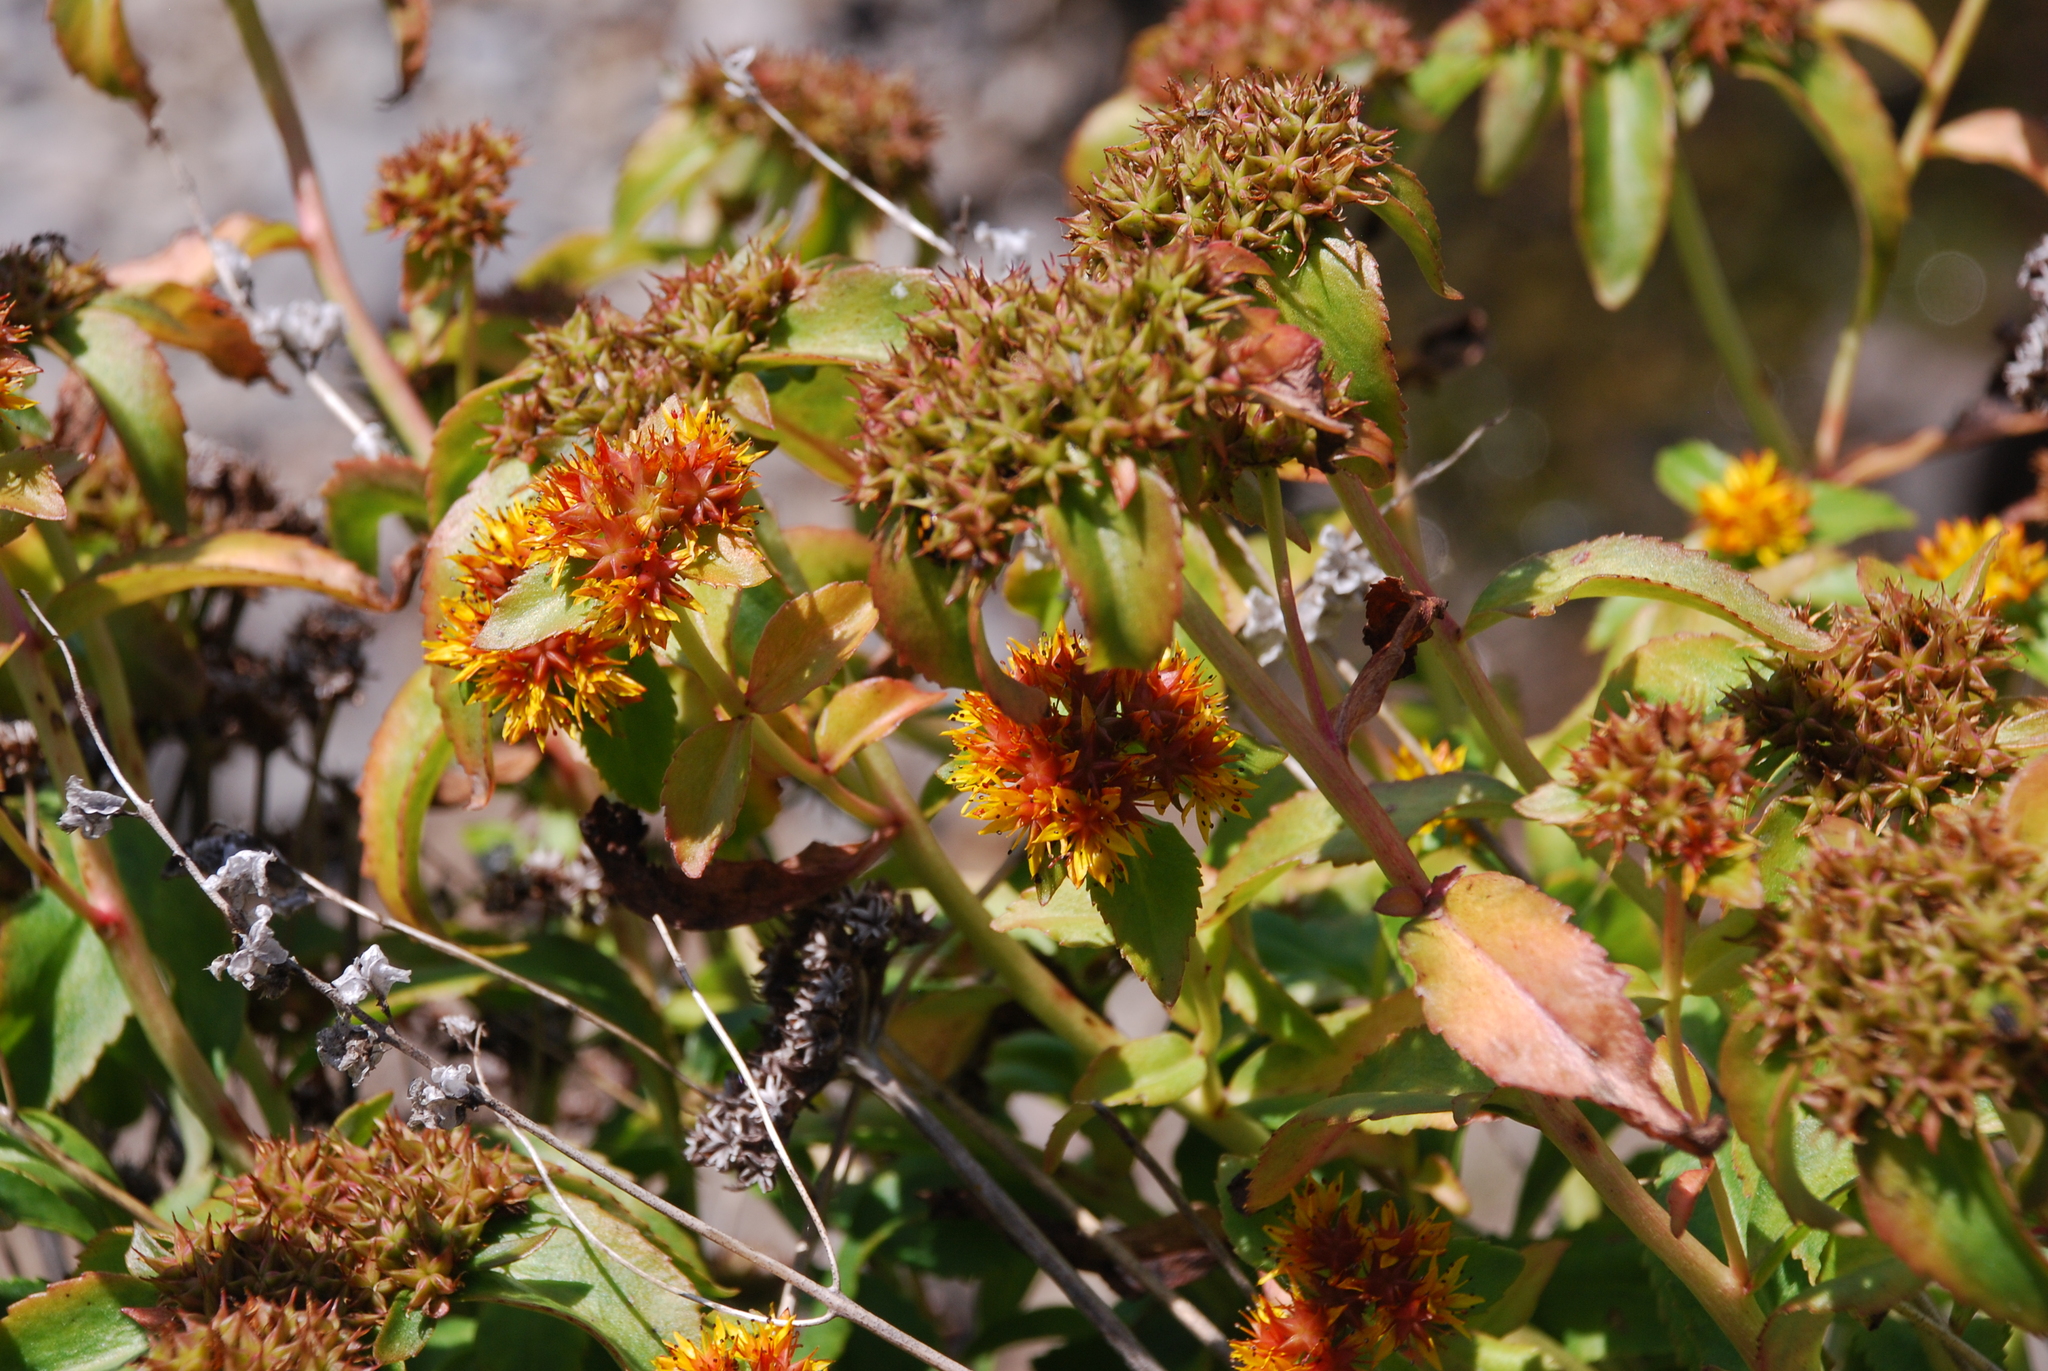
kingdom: Plantae
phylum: Tracheophyta
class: Magnoliopsida
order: Saxifragales
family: Crassulaceae
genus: Phedimus
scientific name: Phedimus aizoon
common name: Orpin aizoon
